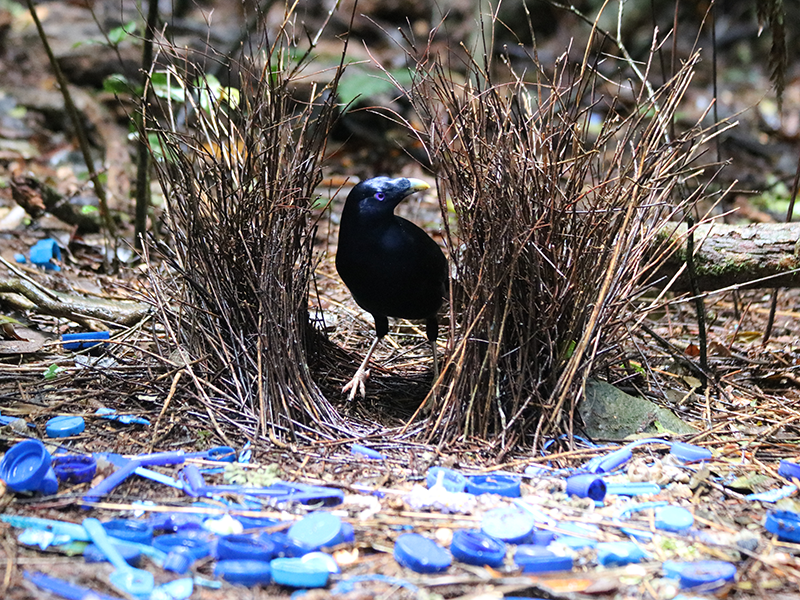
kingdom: Animalia
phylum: Chordata
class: Aves
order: Passeriformes
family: Ptilonorhynchidae
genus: Ptilonorhynchus
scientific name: Ptilonorhynchus violaceus
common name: Satin bowerbird
